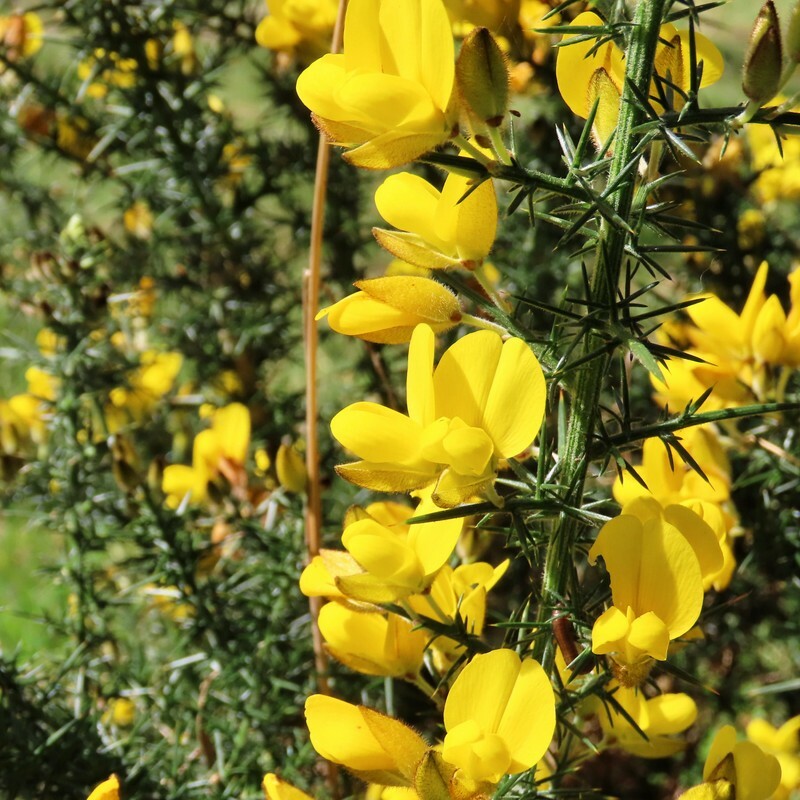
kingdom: Plantae
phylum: Tracheophyta
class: Magnoliopsida
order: Fabales
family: Fabaceae
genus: Ulex
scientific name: Ulex europaeus
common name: Common gorse
